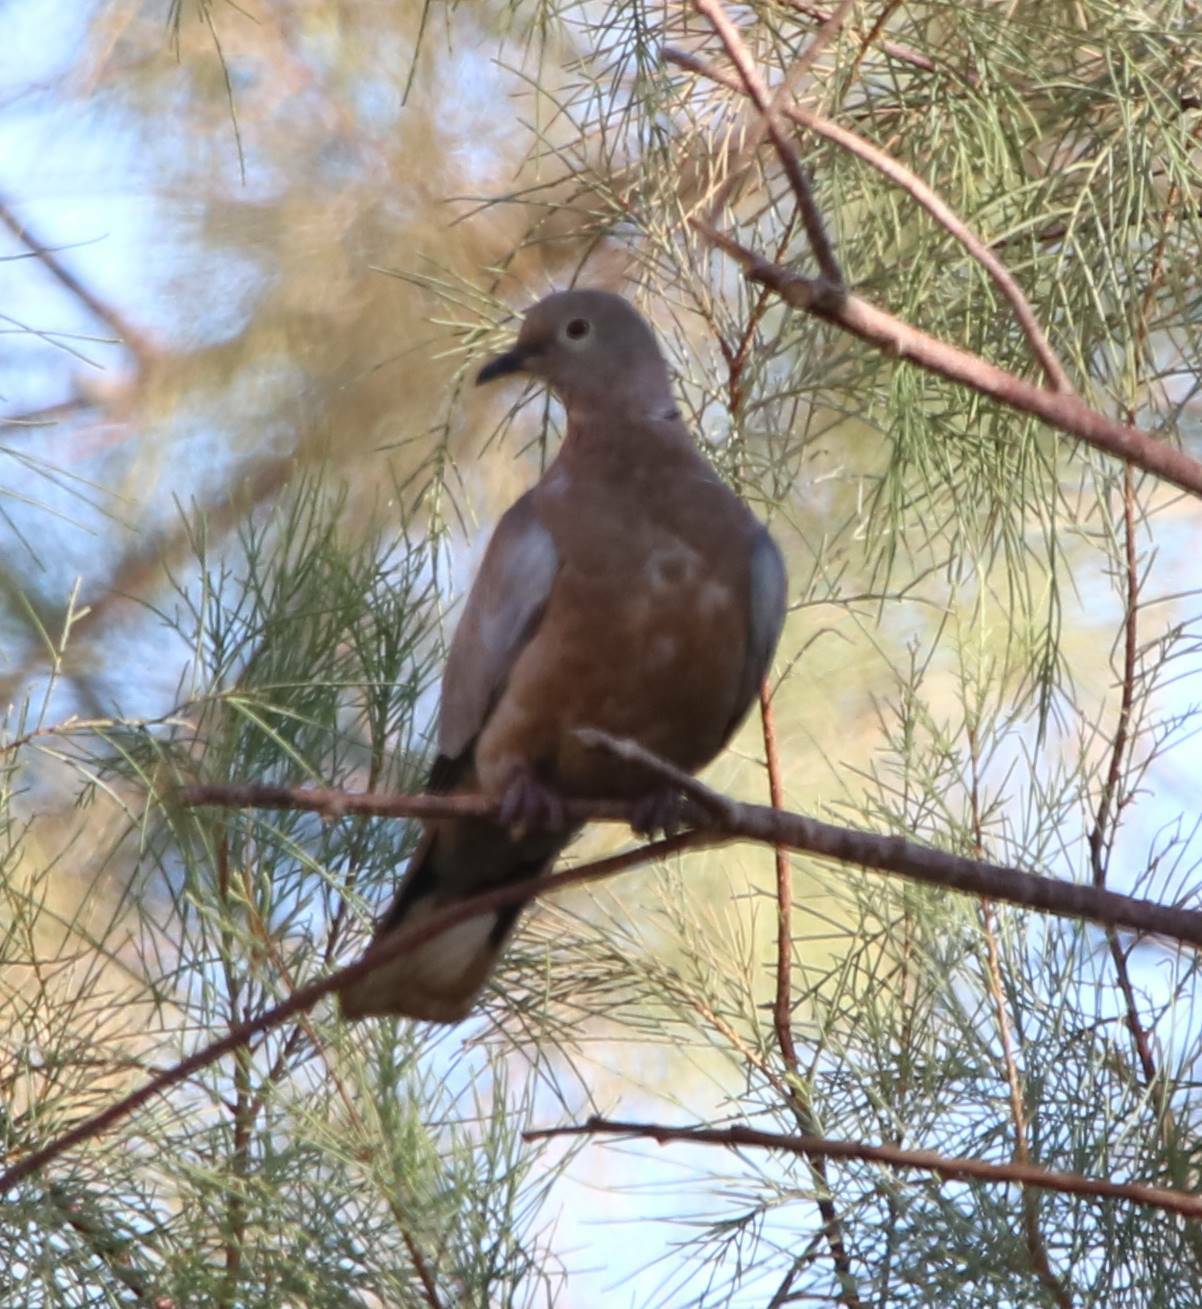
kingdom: Animalia
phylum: Chordata
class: Aves
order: Columbiformes
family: Columbidae
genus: Streptopelia
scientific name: Streptopelia roseogrisea
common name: African collared dove
